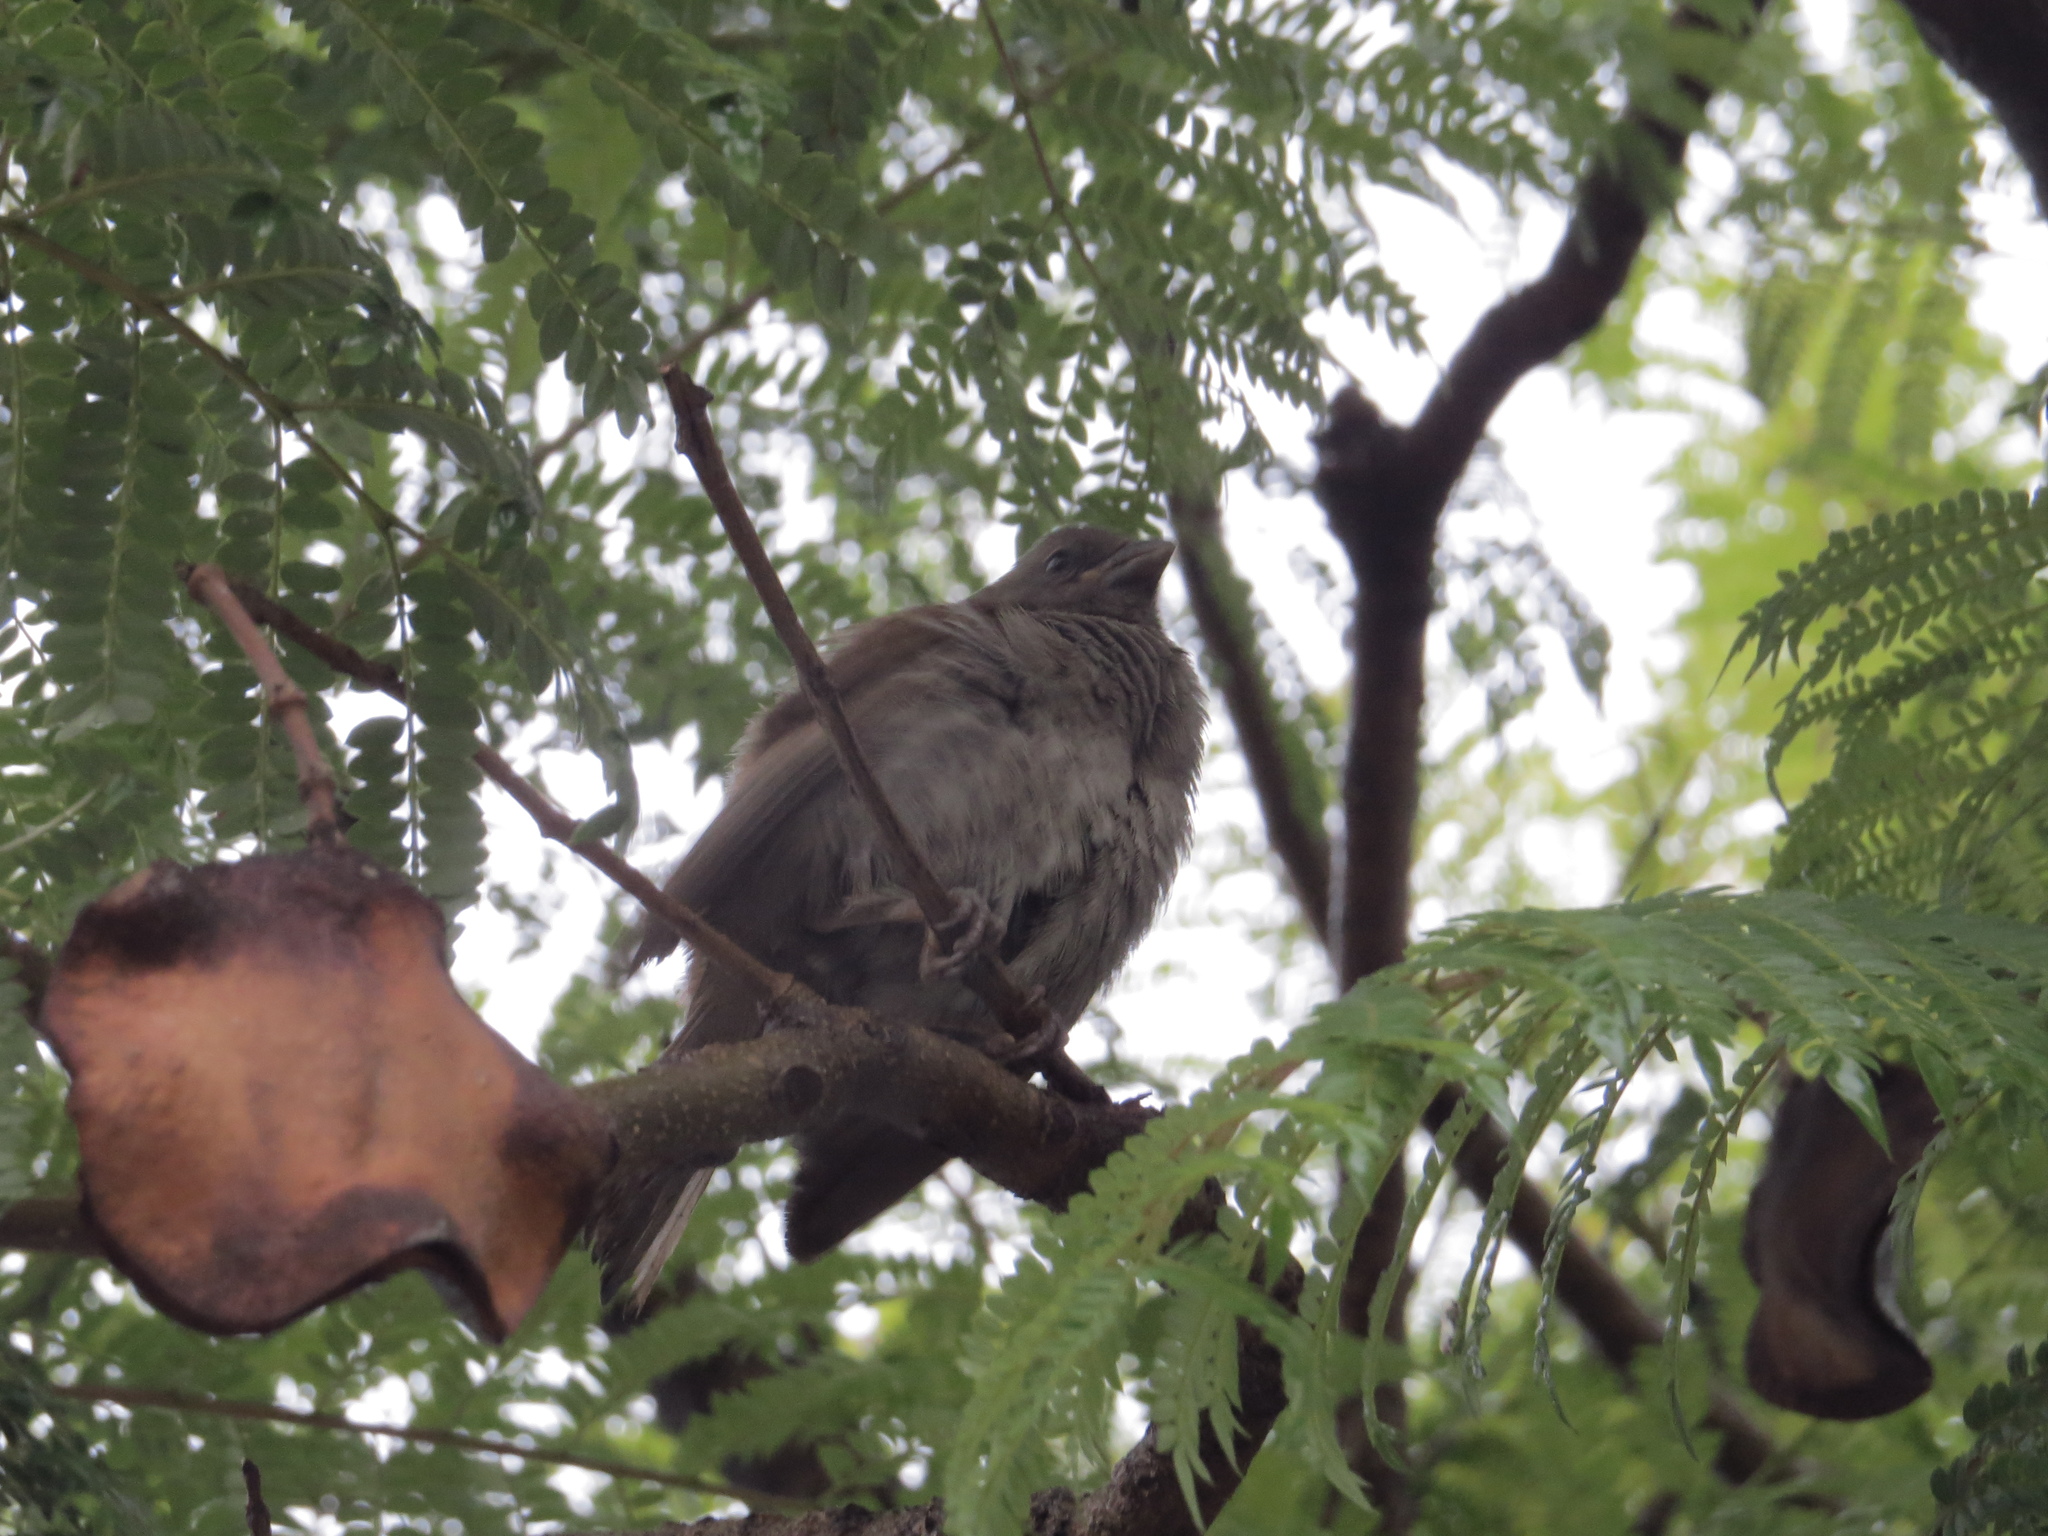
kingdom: Animalia
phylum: Chordata
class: Aves
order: Passeriformes
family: Passeridae
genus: Passer
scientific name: Passer swainsonii
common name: Swainson's sparrow
